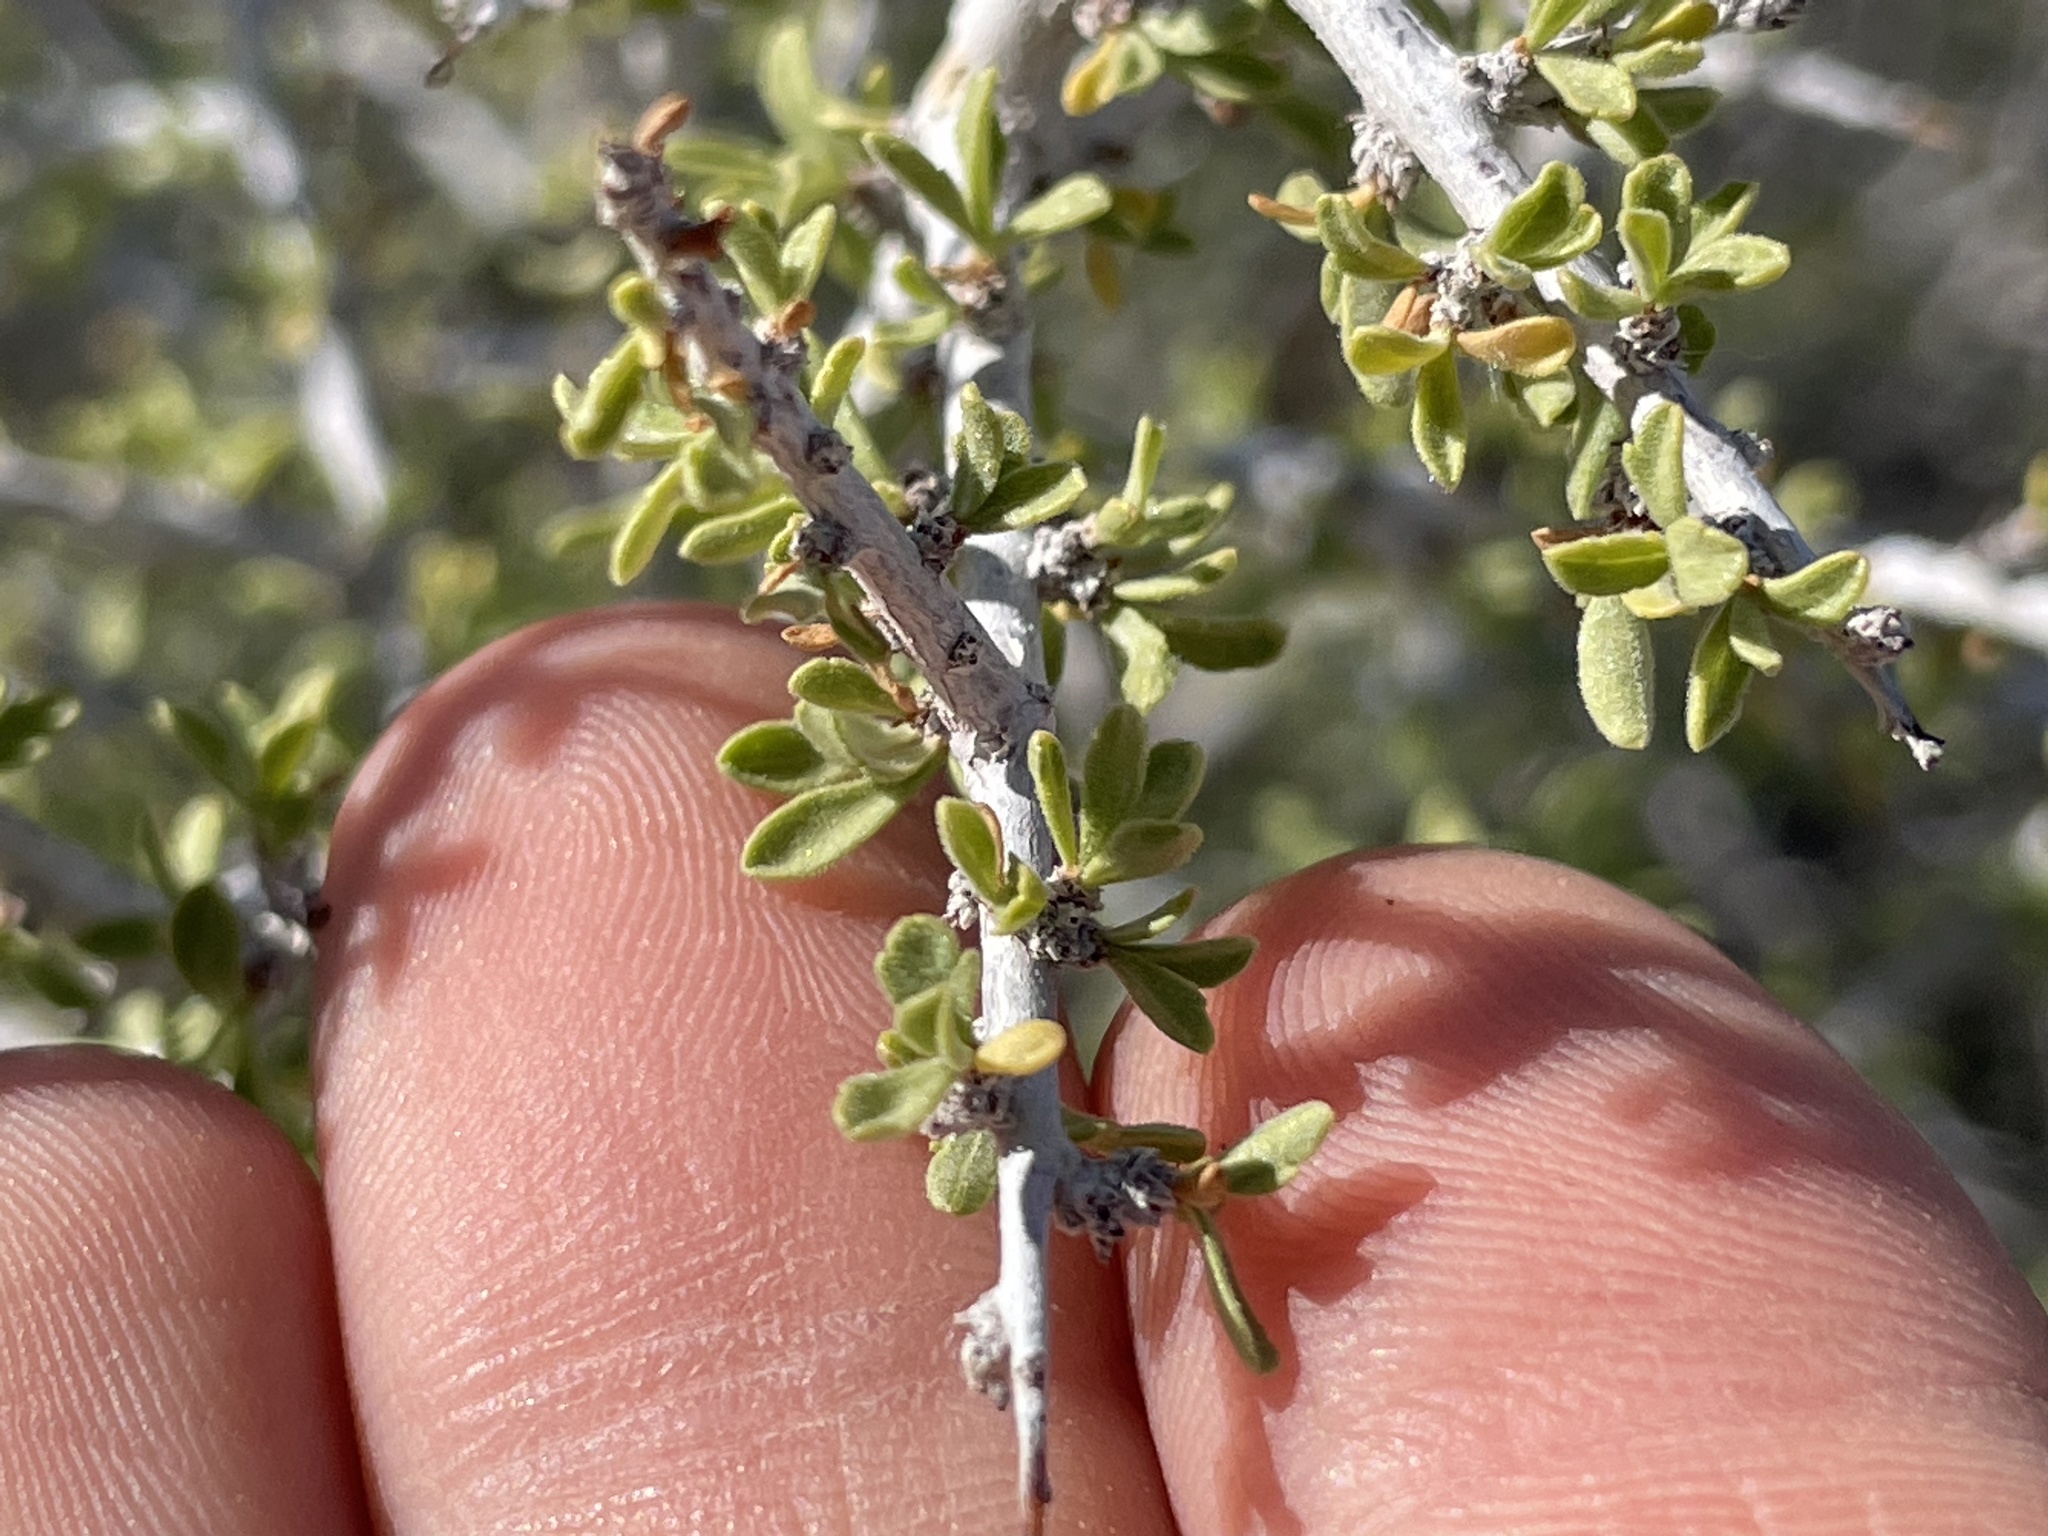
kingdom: Plantae
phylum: Tracheophyta
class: Magnoliopsida
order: Rosales
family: Rosaceae
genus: Prunus
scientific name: Prunus fasciculata
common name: Desert almond
